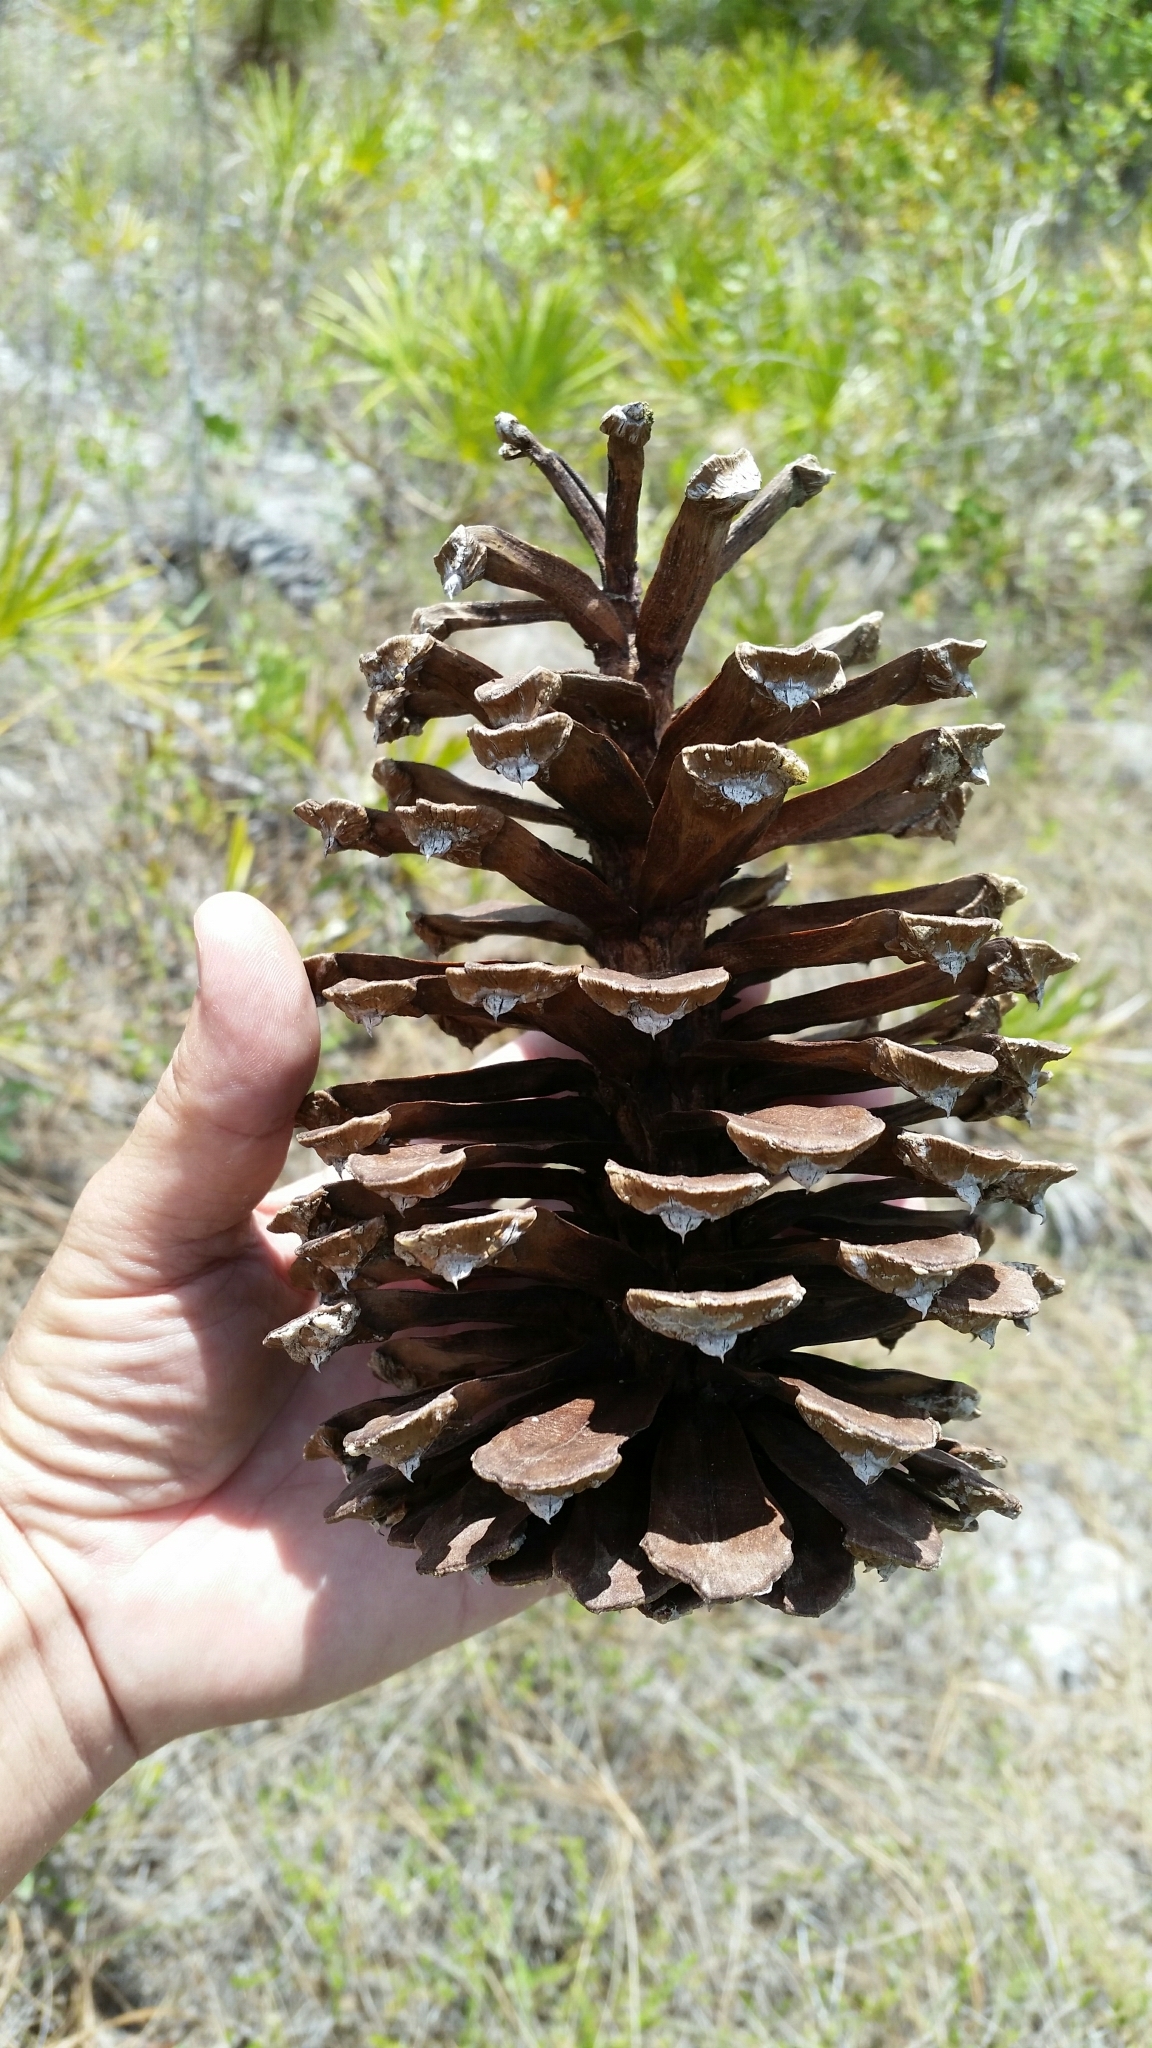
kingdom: Plantae
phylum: Tracheophyta
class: Pinopsida
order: Pinales
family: Pinaceae
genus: Pinus
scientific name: Pinus palustris
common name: Longleaf pine
